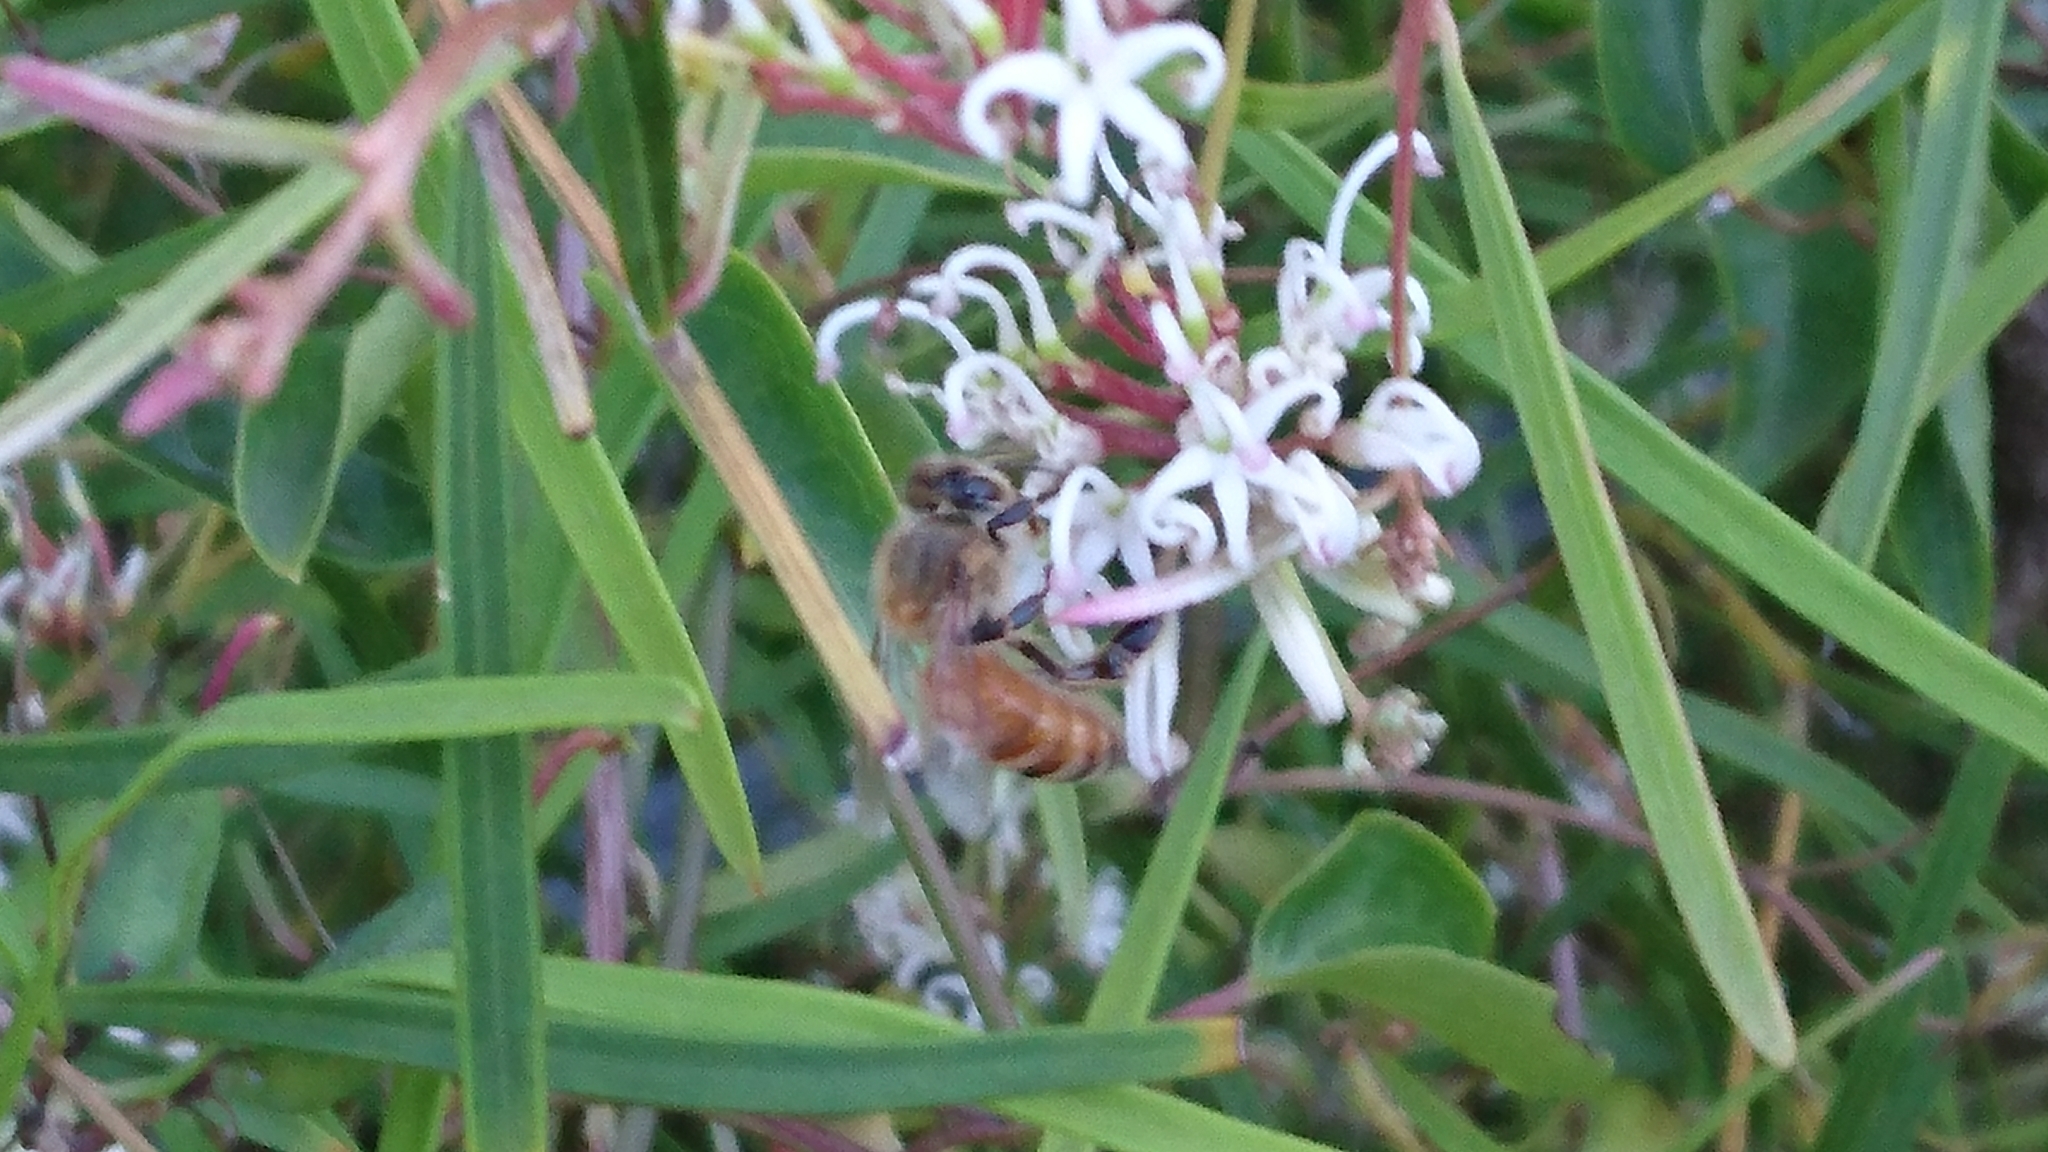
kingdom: Animalia
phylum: Arthropoda
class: Insecta
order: Hymenoptera
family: Apidae
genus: Apis
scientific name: Apis mellifera
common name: Honey bee
